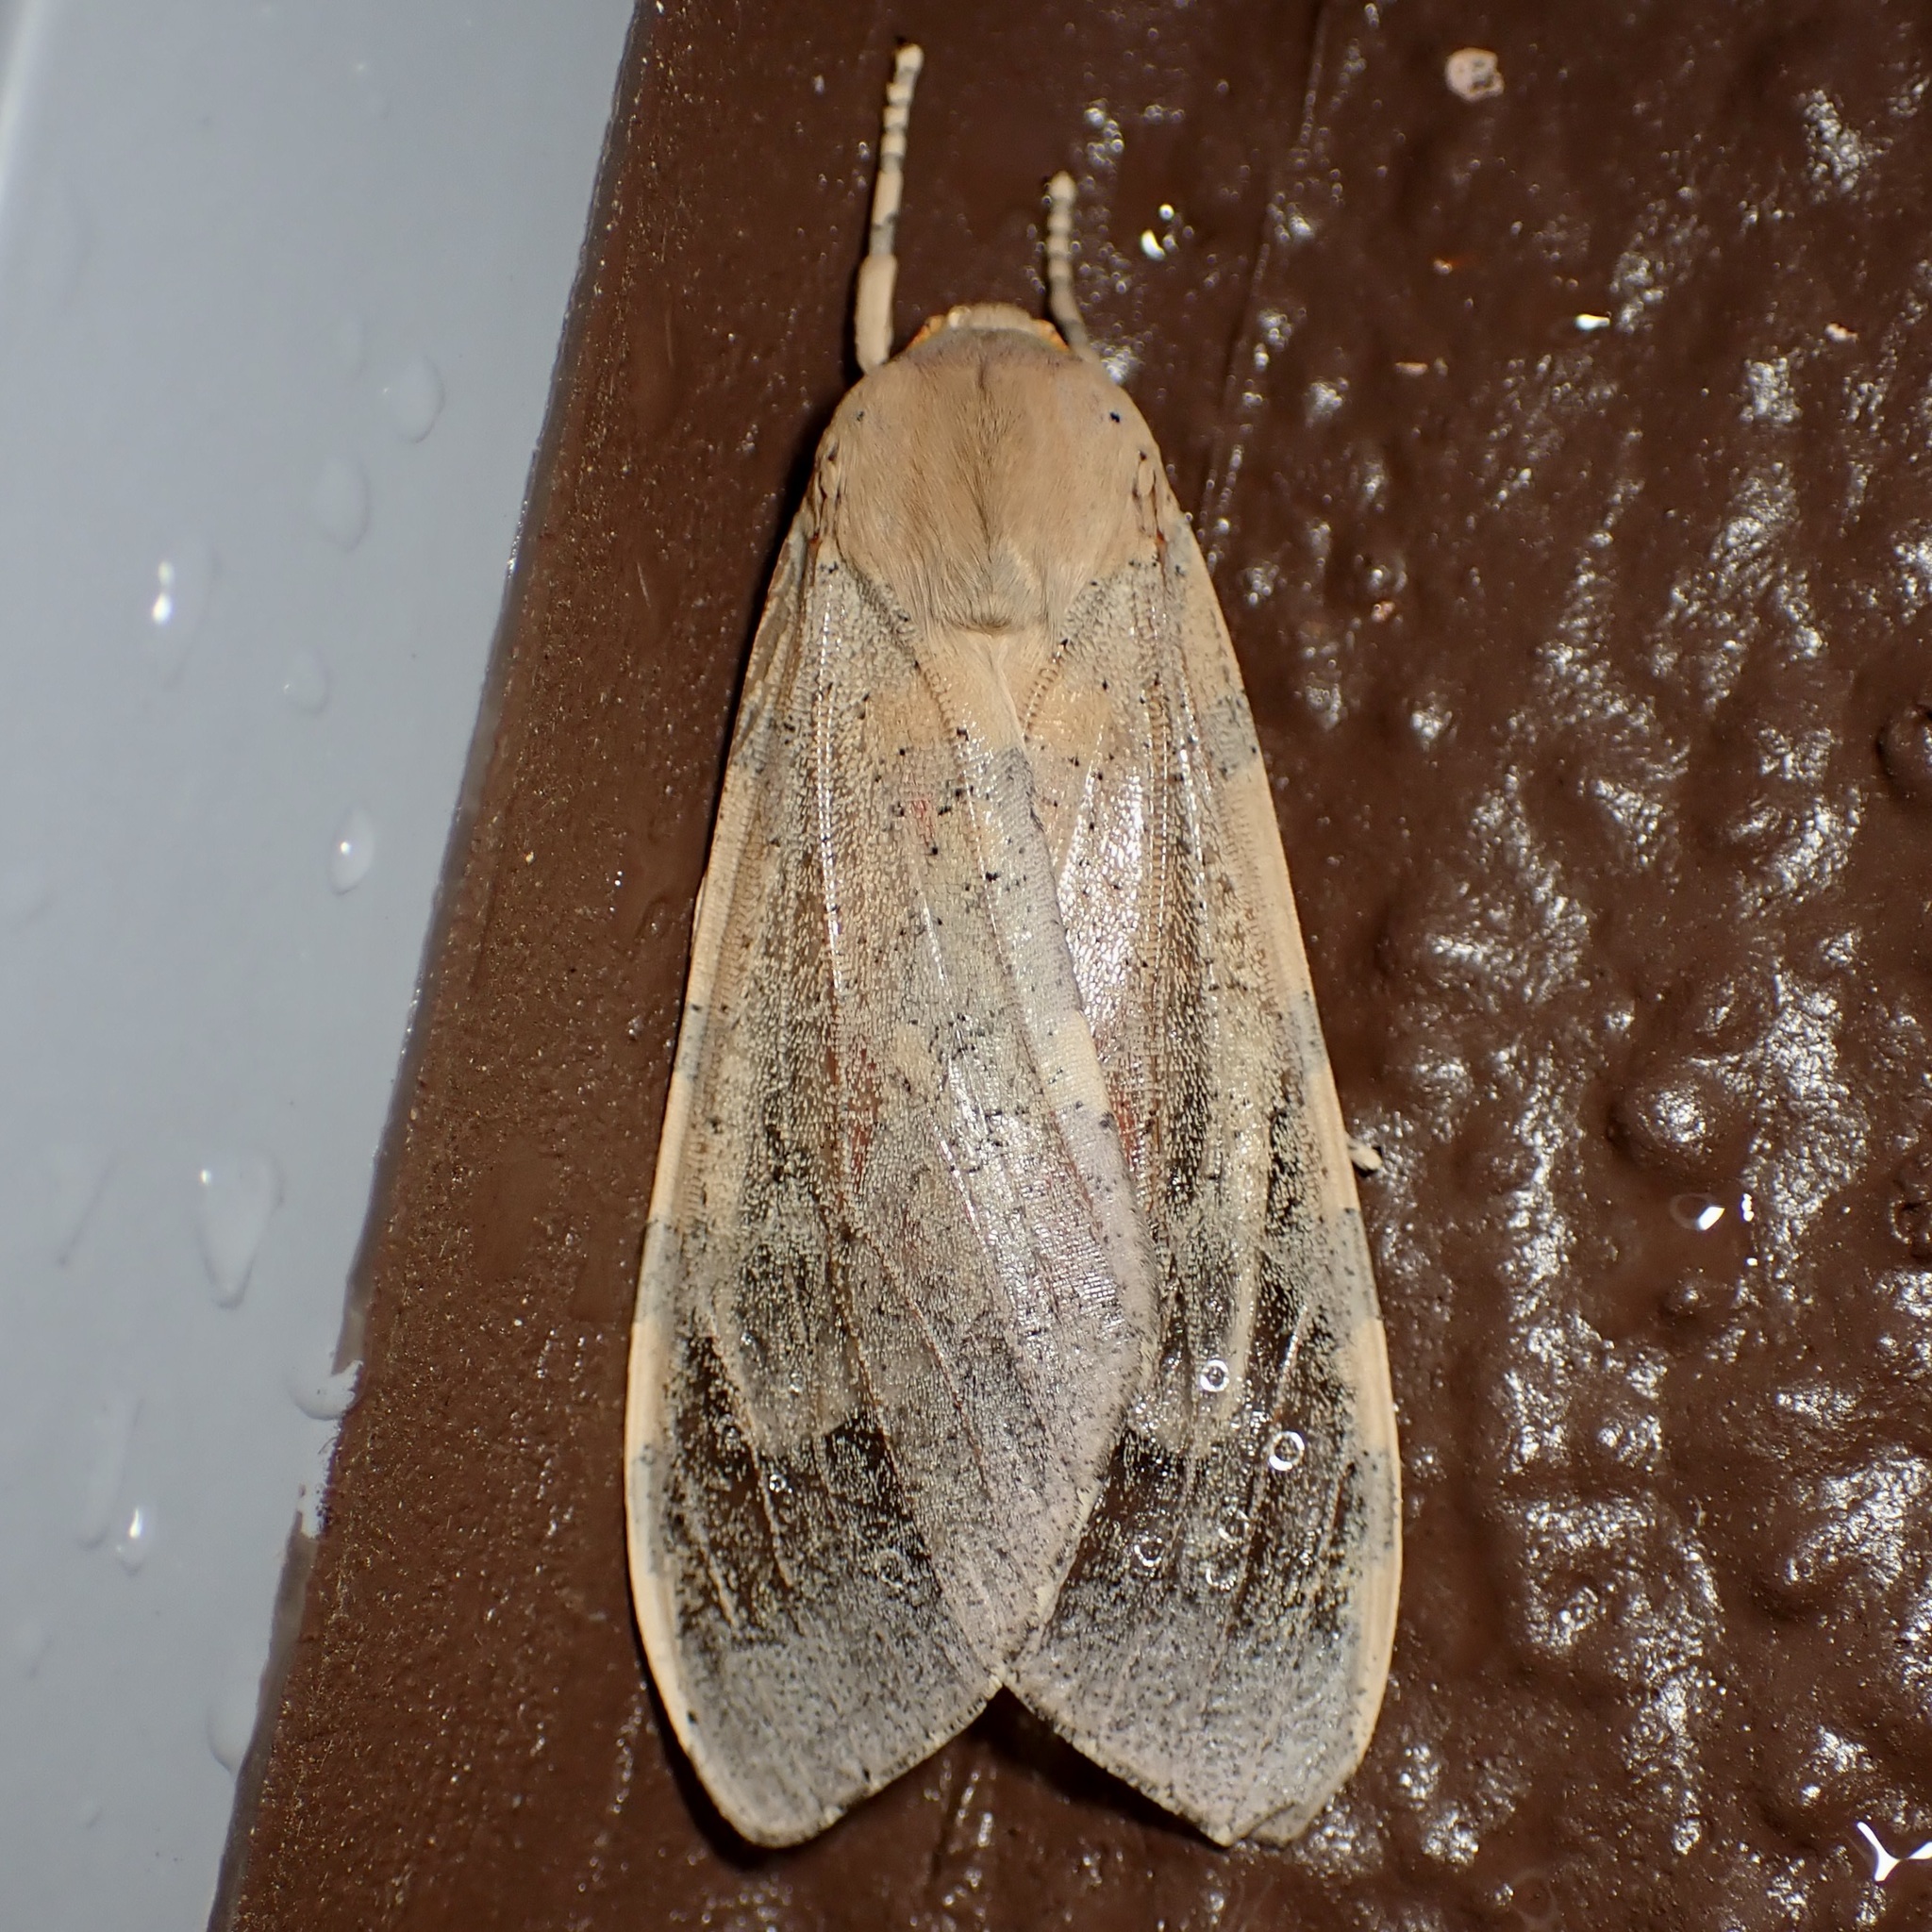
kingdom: Animalia
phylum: Arthropoda
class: Insecta
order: Lepidoptera
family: Erebidae
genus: Hemihyalea
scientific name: Hemihyalea edwardsii
